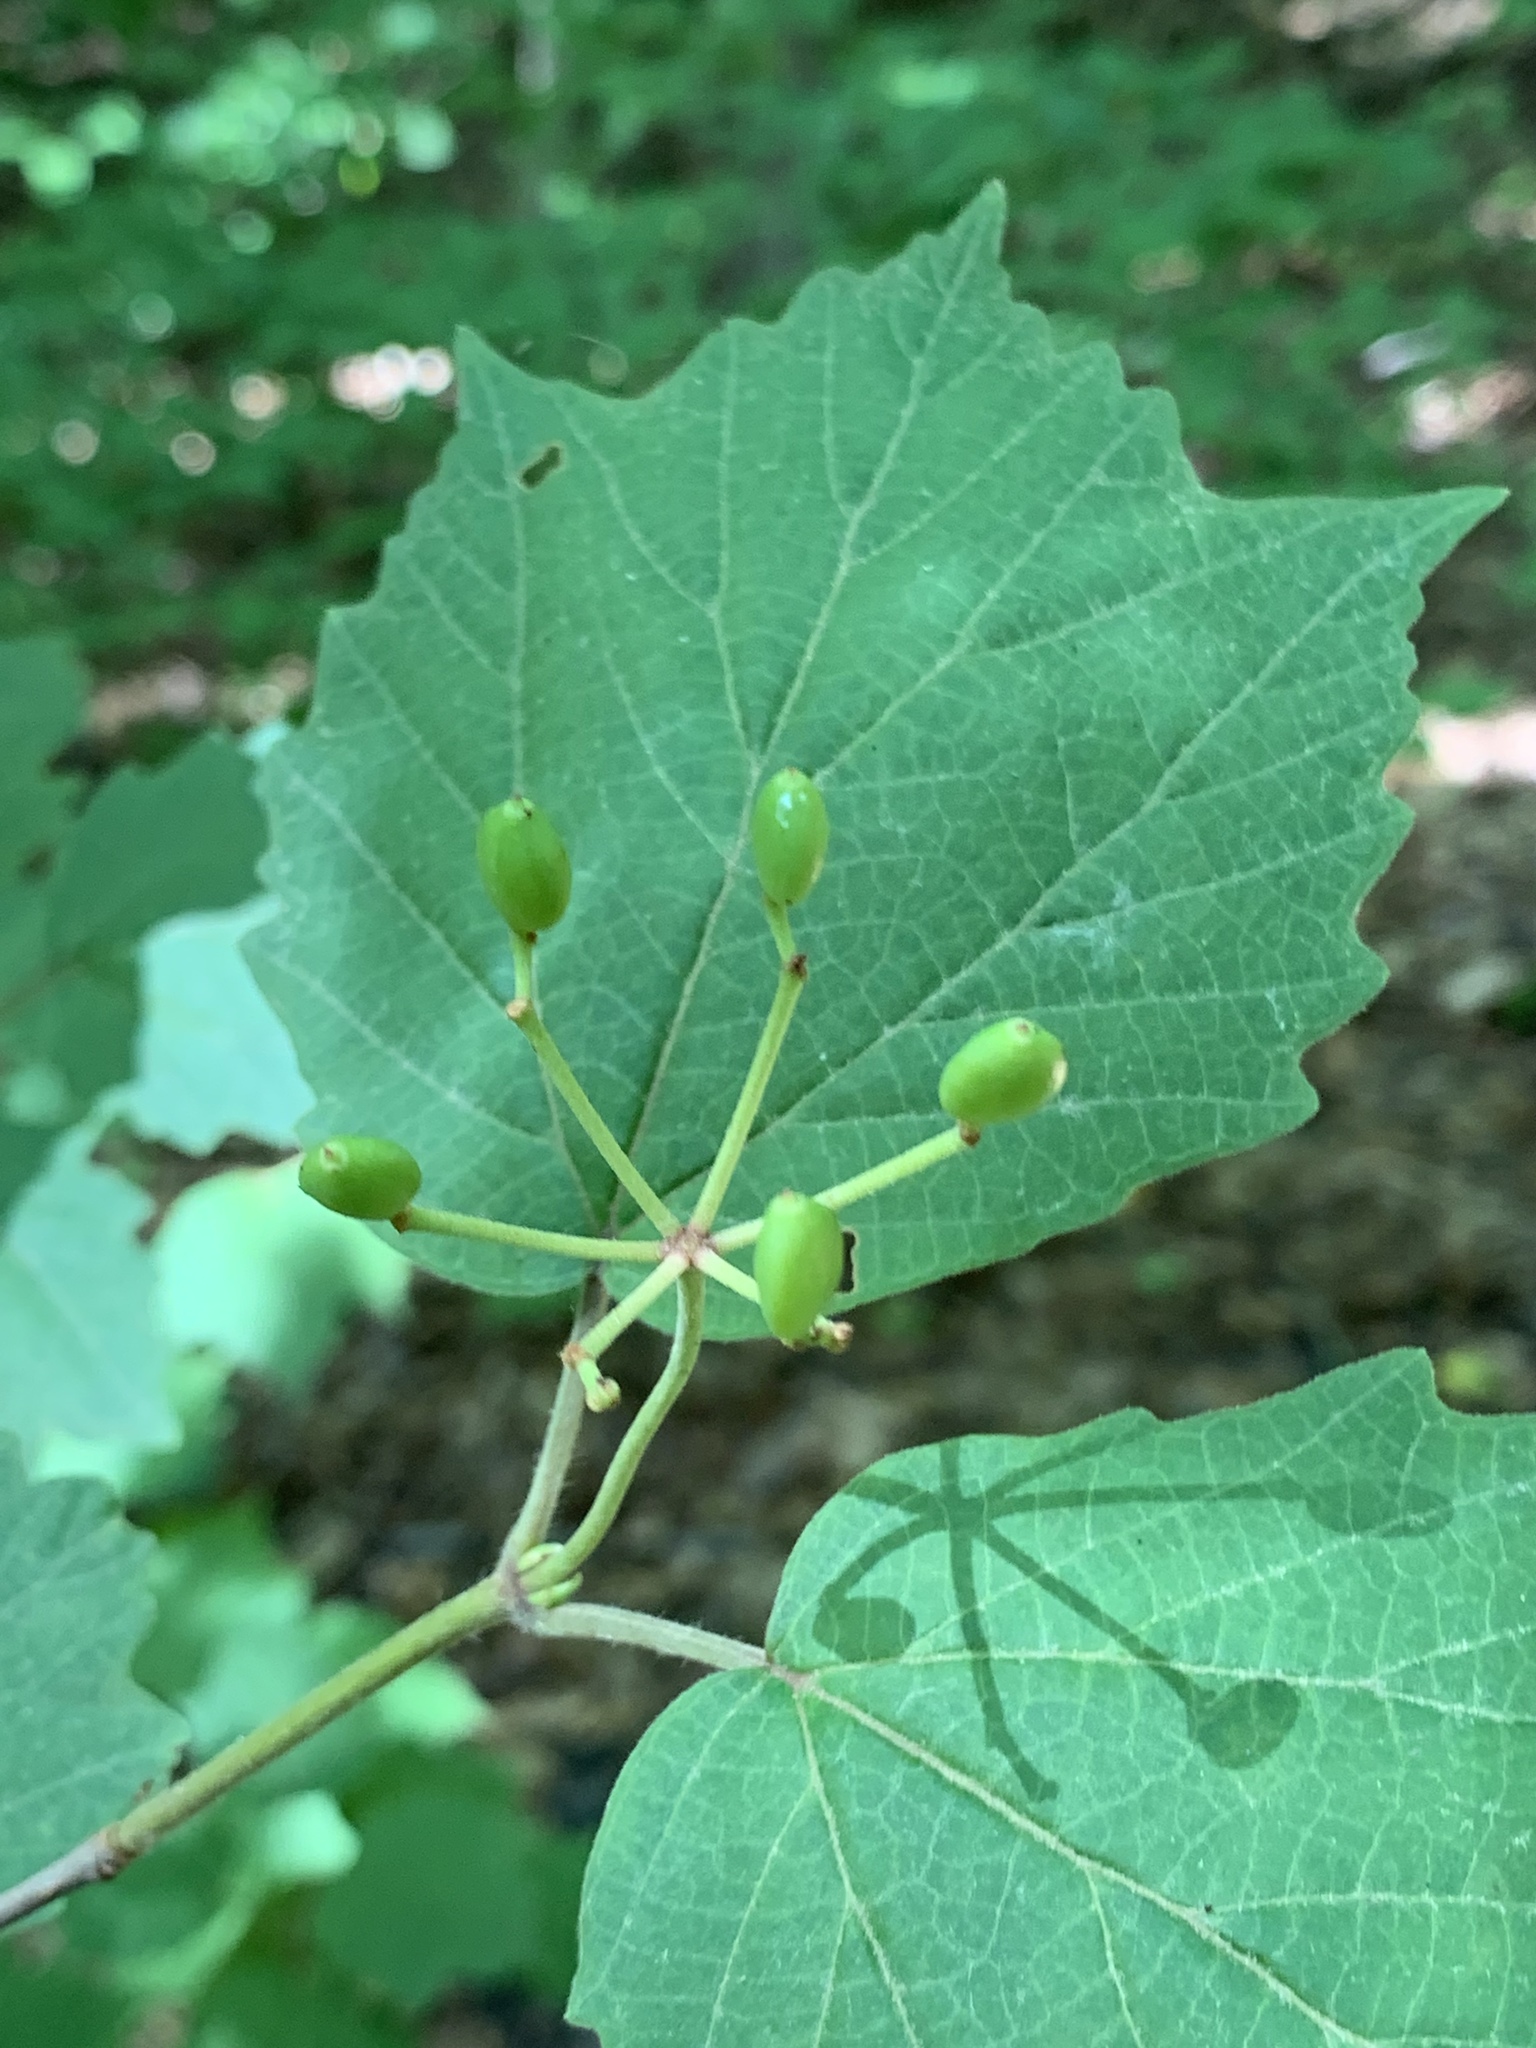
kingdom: Plantae
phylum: Tracheophyta
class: Magnoliopsida
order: Dipsacales
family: Viburnaceae
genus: Viburnum
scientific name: Viburnum acerifolium
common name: Dockmackie
